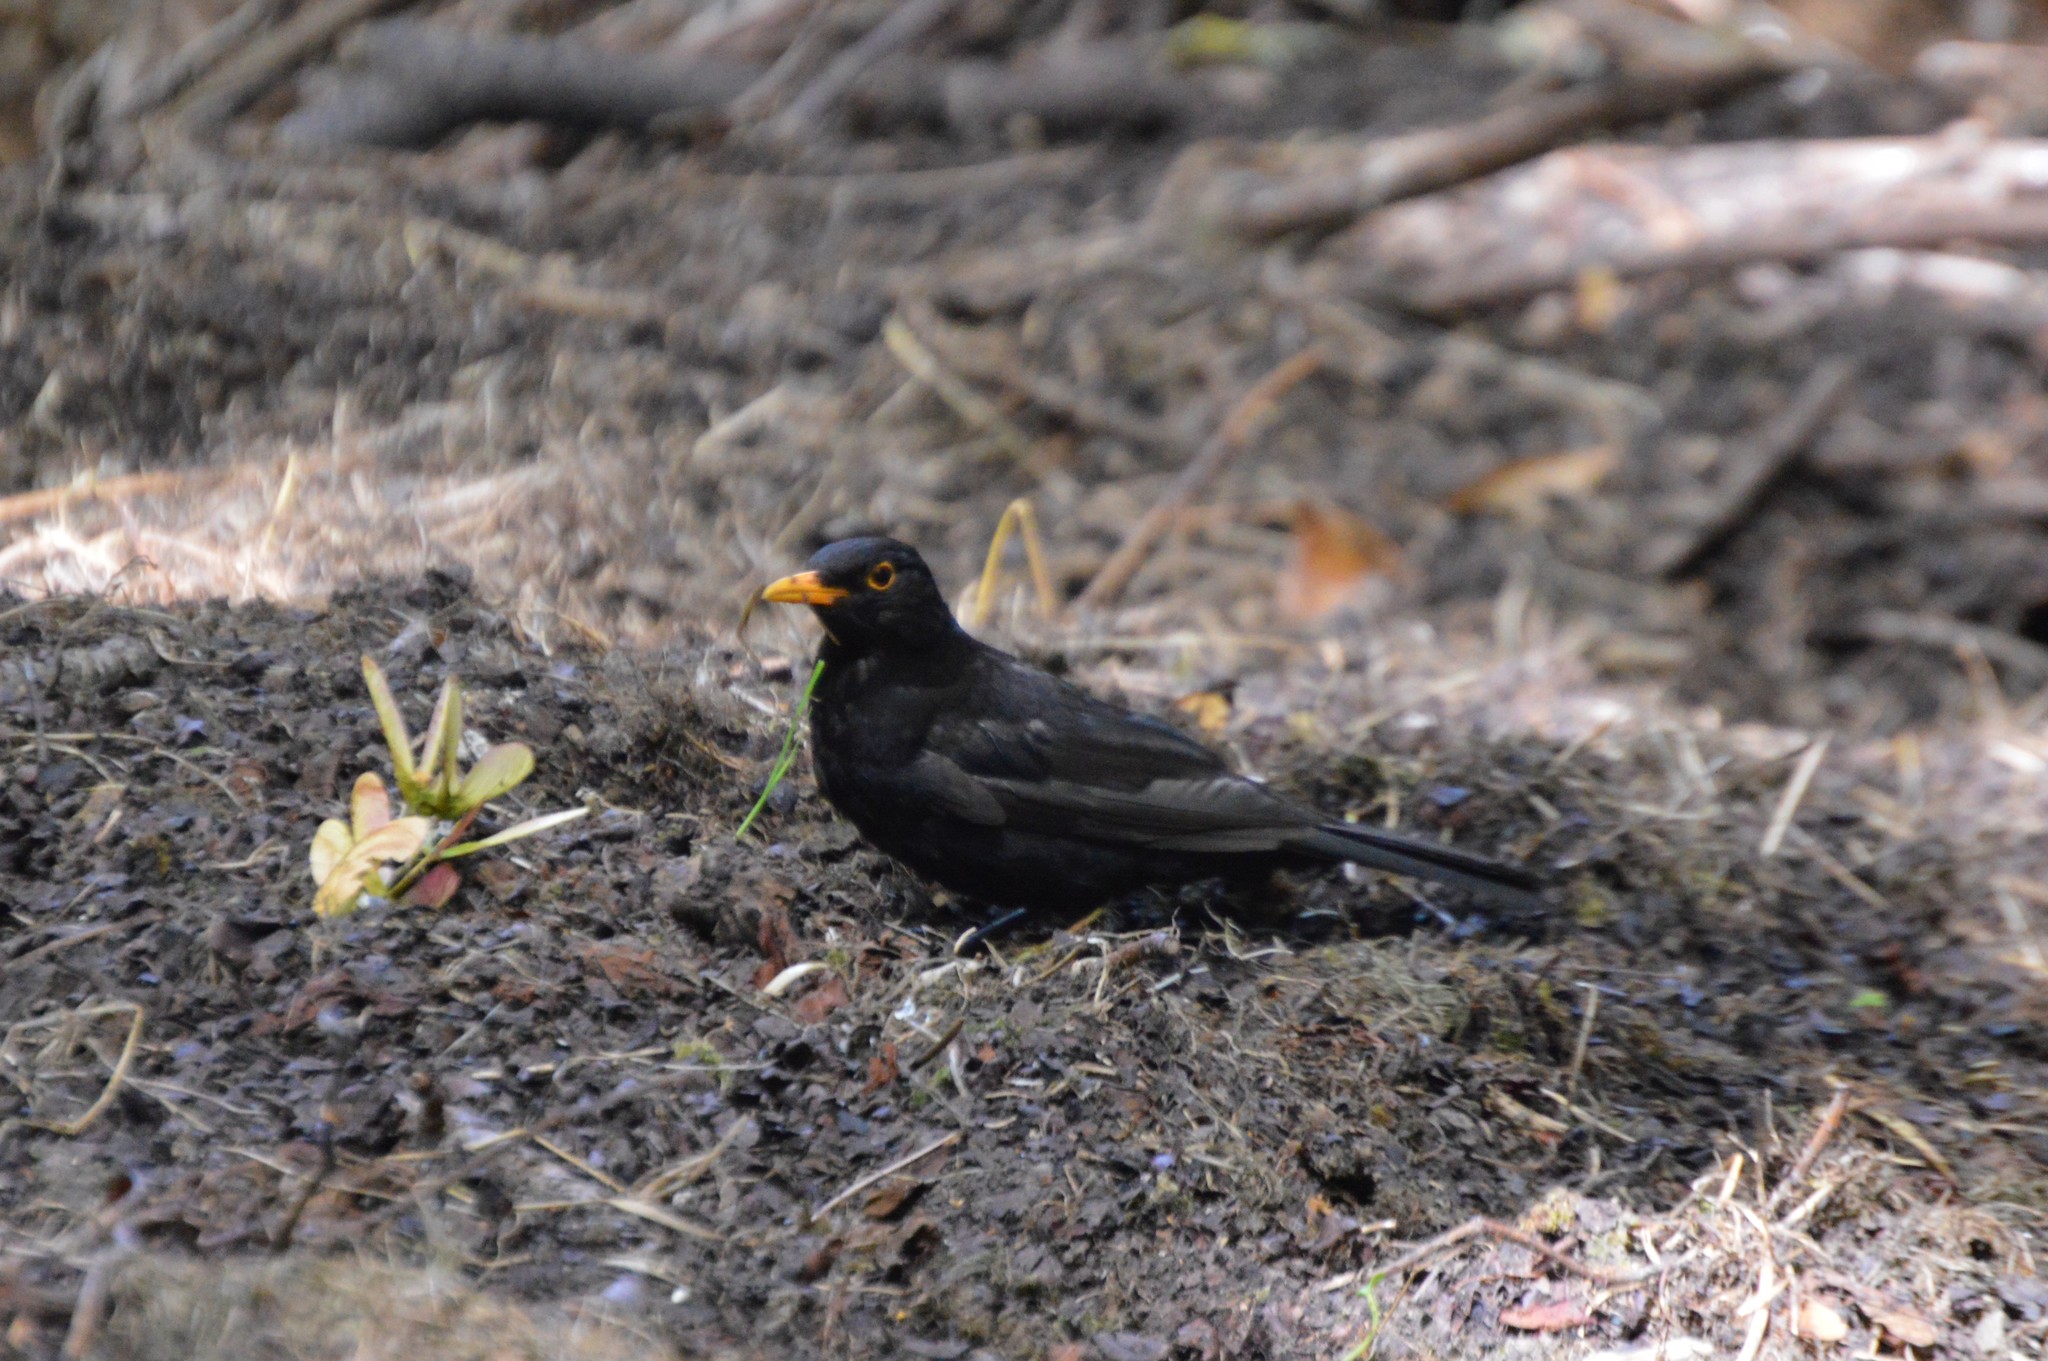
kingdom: Animalia
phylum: Chordata
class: Aves
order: Passeriformes
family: Turdidae
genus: Turdus
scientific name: Turdus merula
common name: Common blackbird
